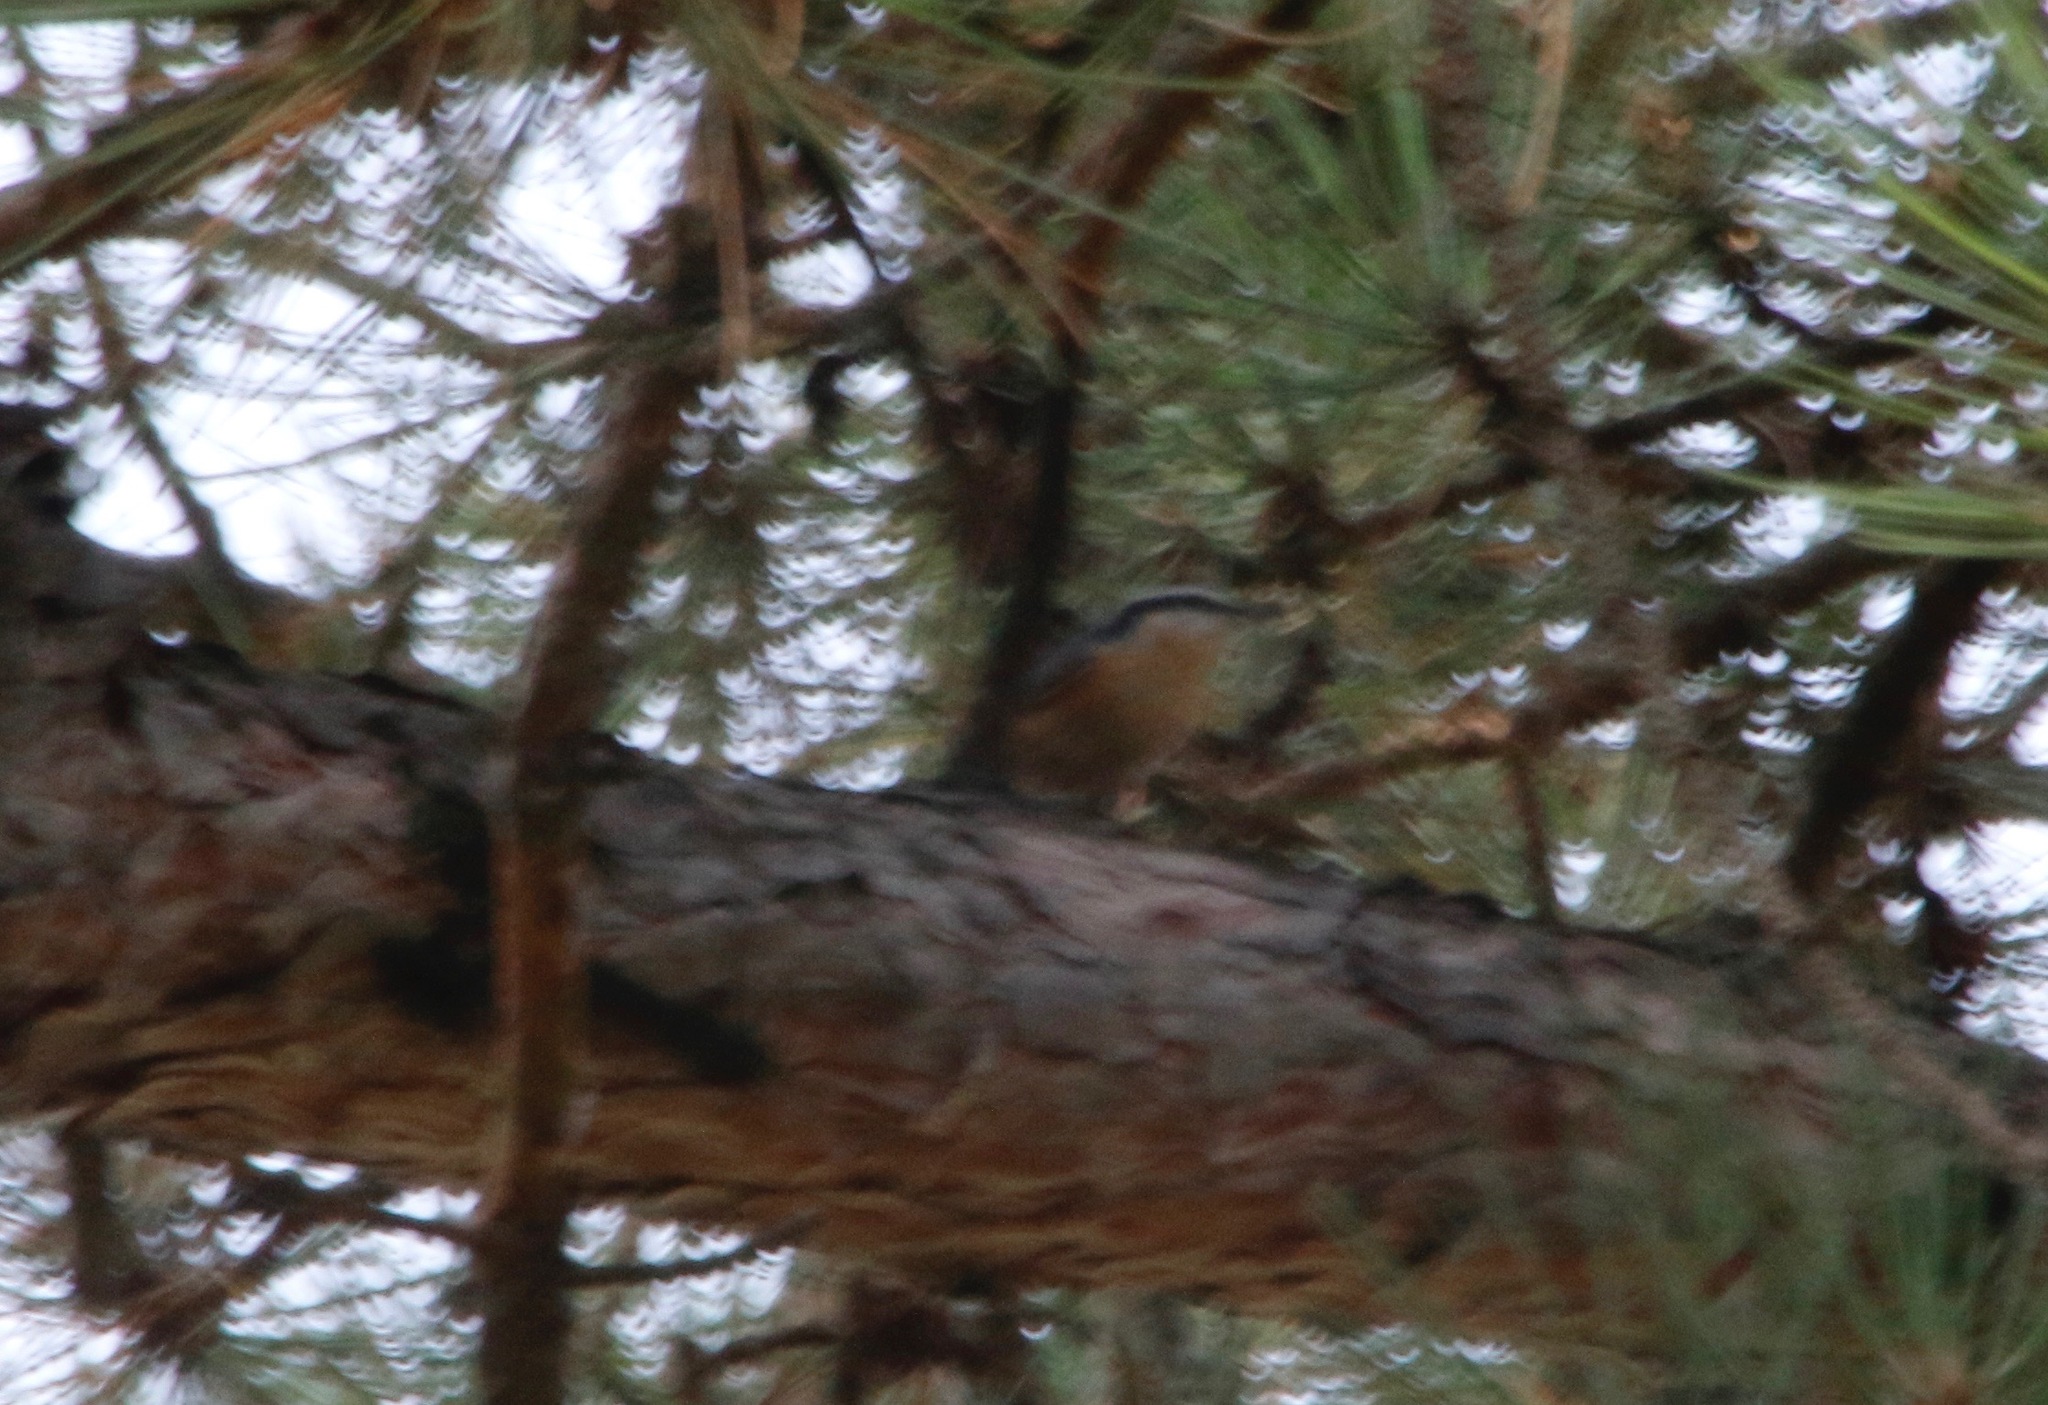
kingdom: Animalia
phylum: Chordata
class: Aves
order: Passeriformes
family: Sittidae
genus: Sitta
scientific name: Sitta canadensis
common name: Red-breasted nuthatch
